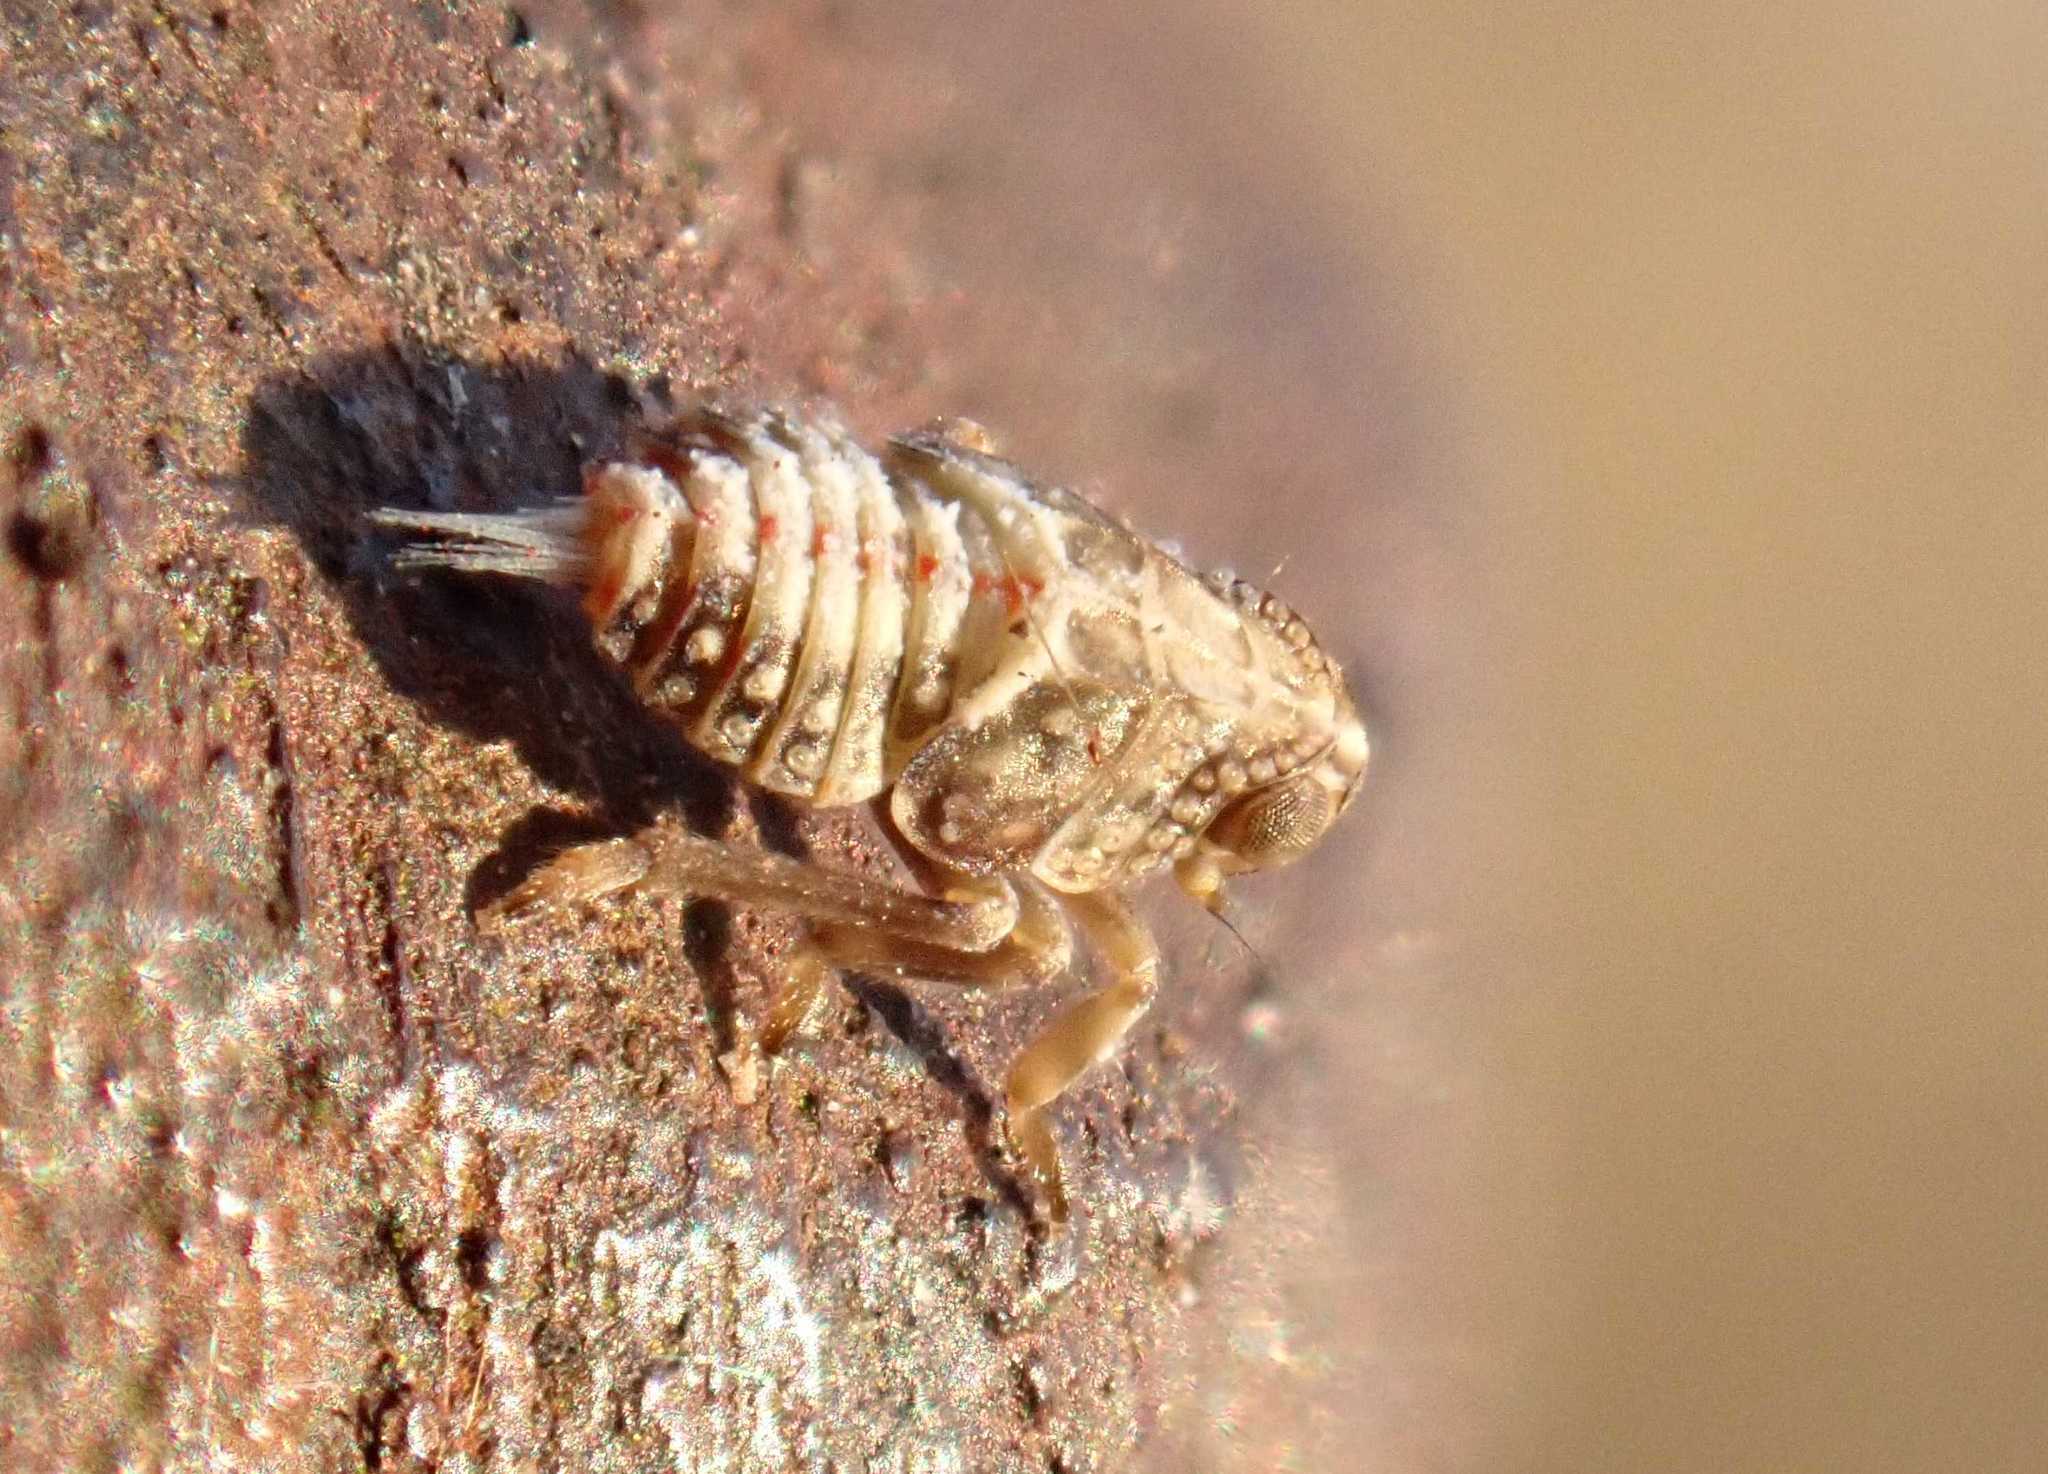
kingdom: Animalia
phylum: Arthropoda
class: Insecta
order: Hemiptera
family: Issidae
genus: Issus
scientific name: Issus
